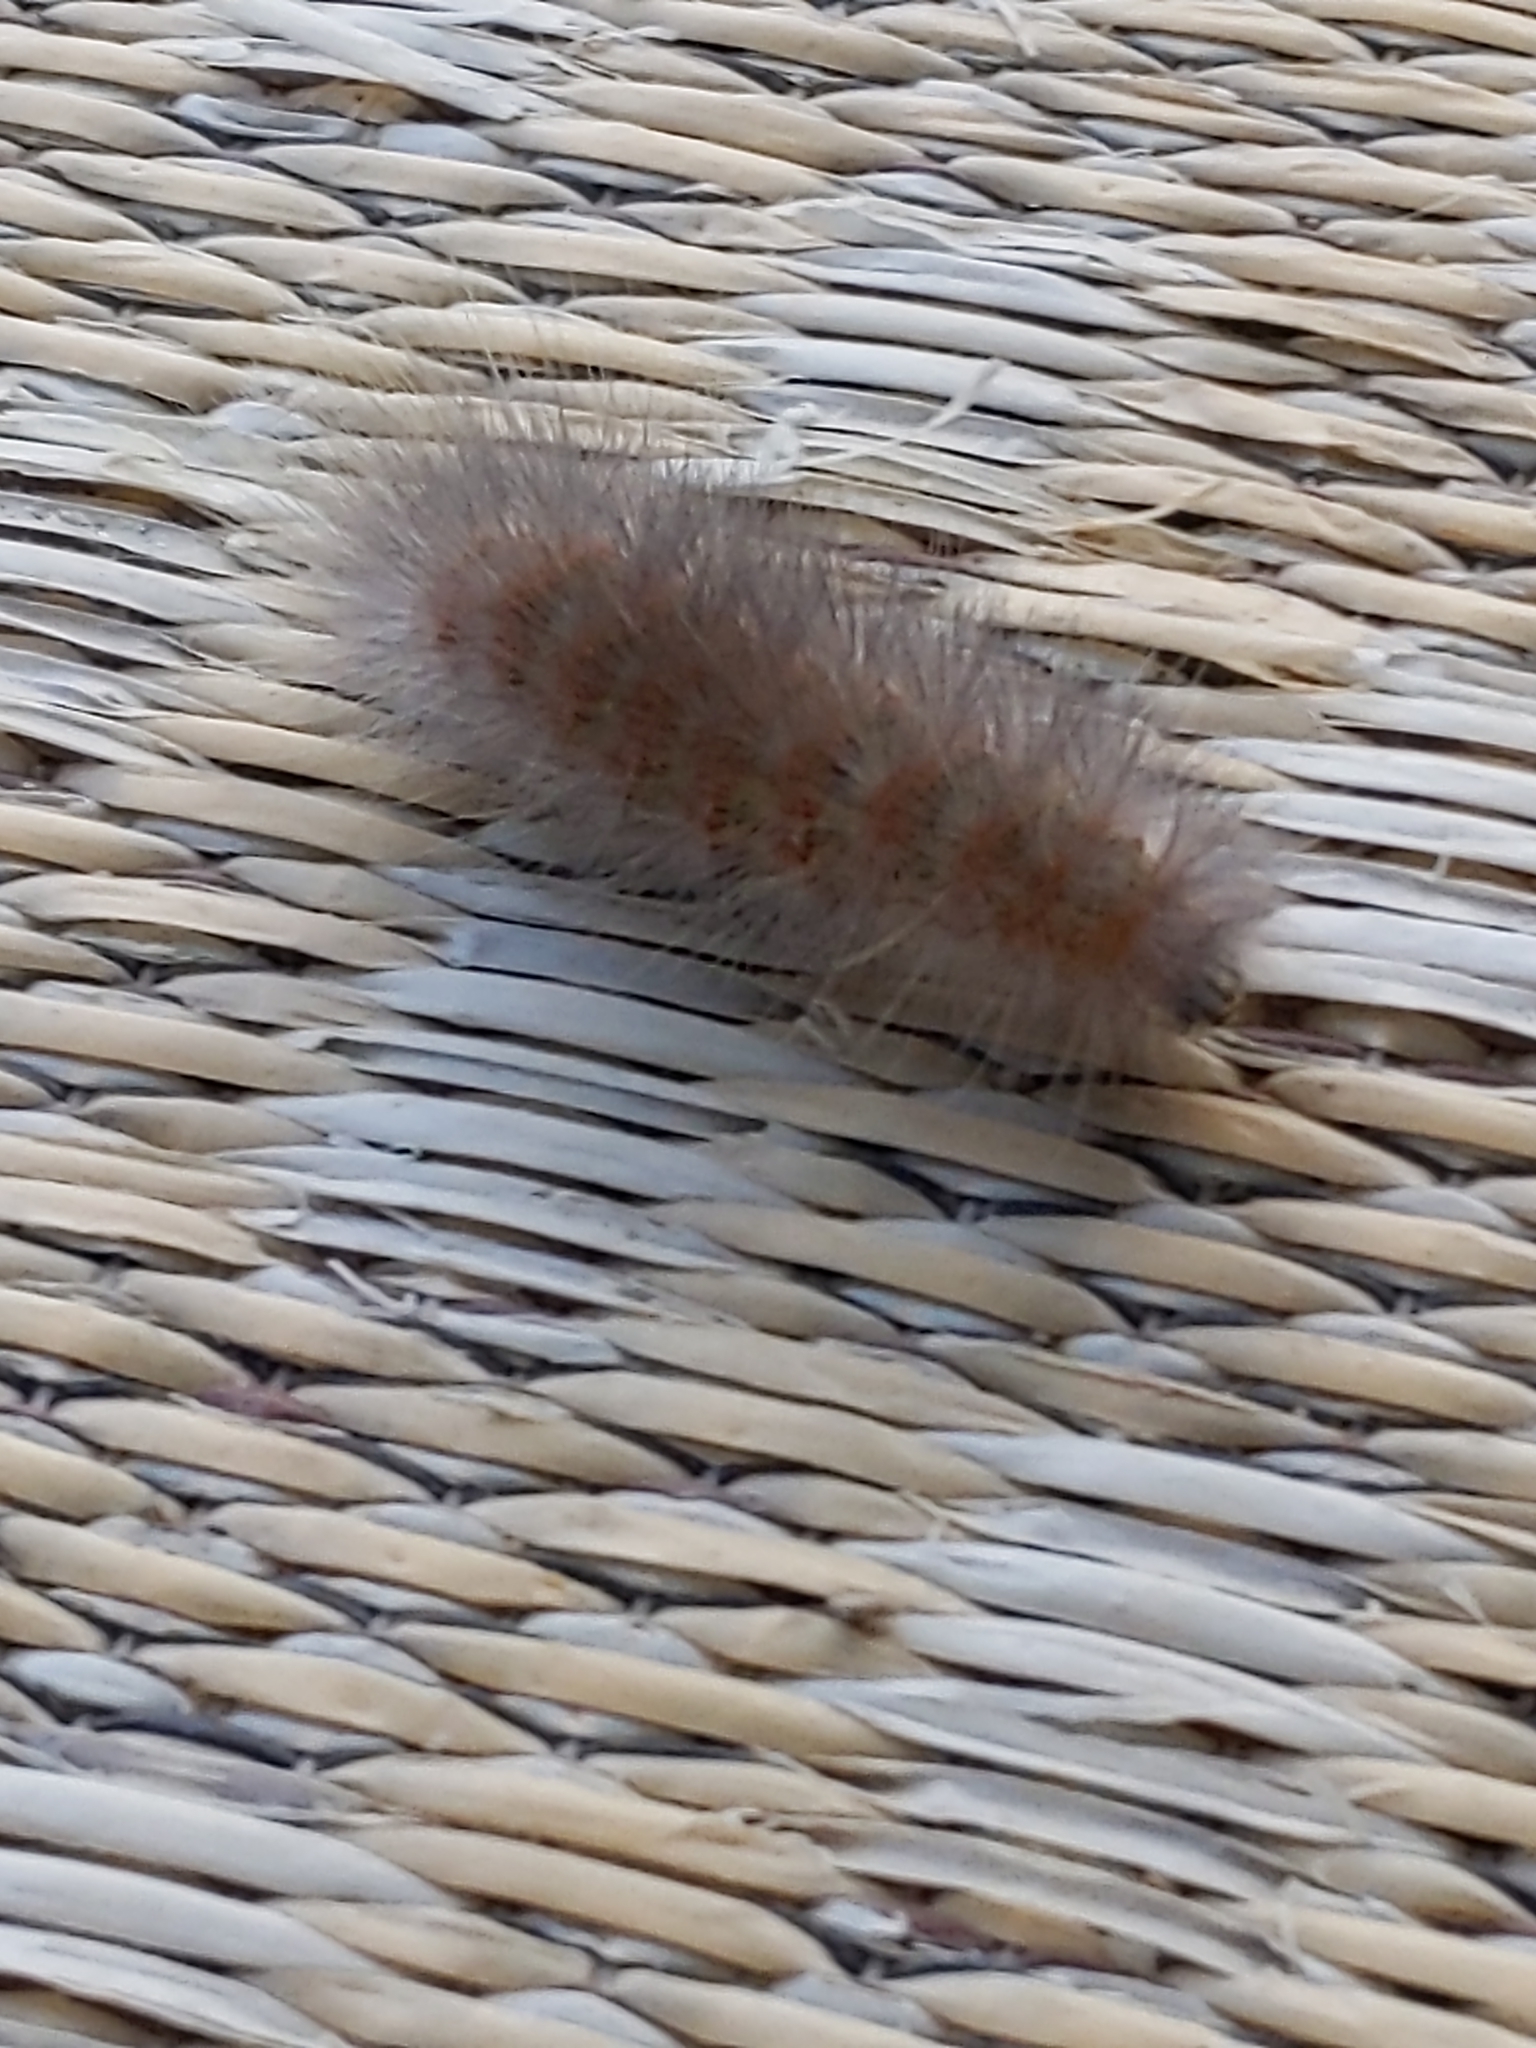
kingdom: Animalia
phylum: Arthropoda
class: Insecta
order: Lepidoptera
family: Erebidae
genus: Estigmene
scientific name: Estigmene acrea
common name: Salt marsh moth
